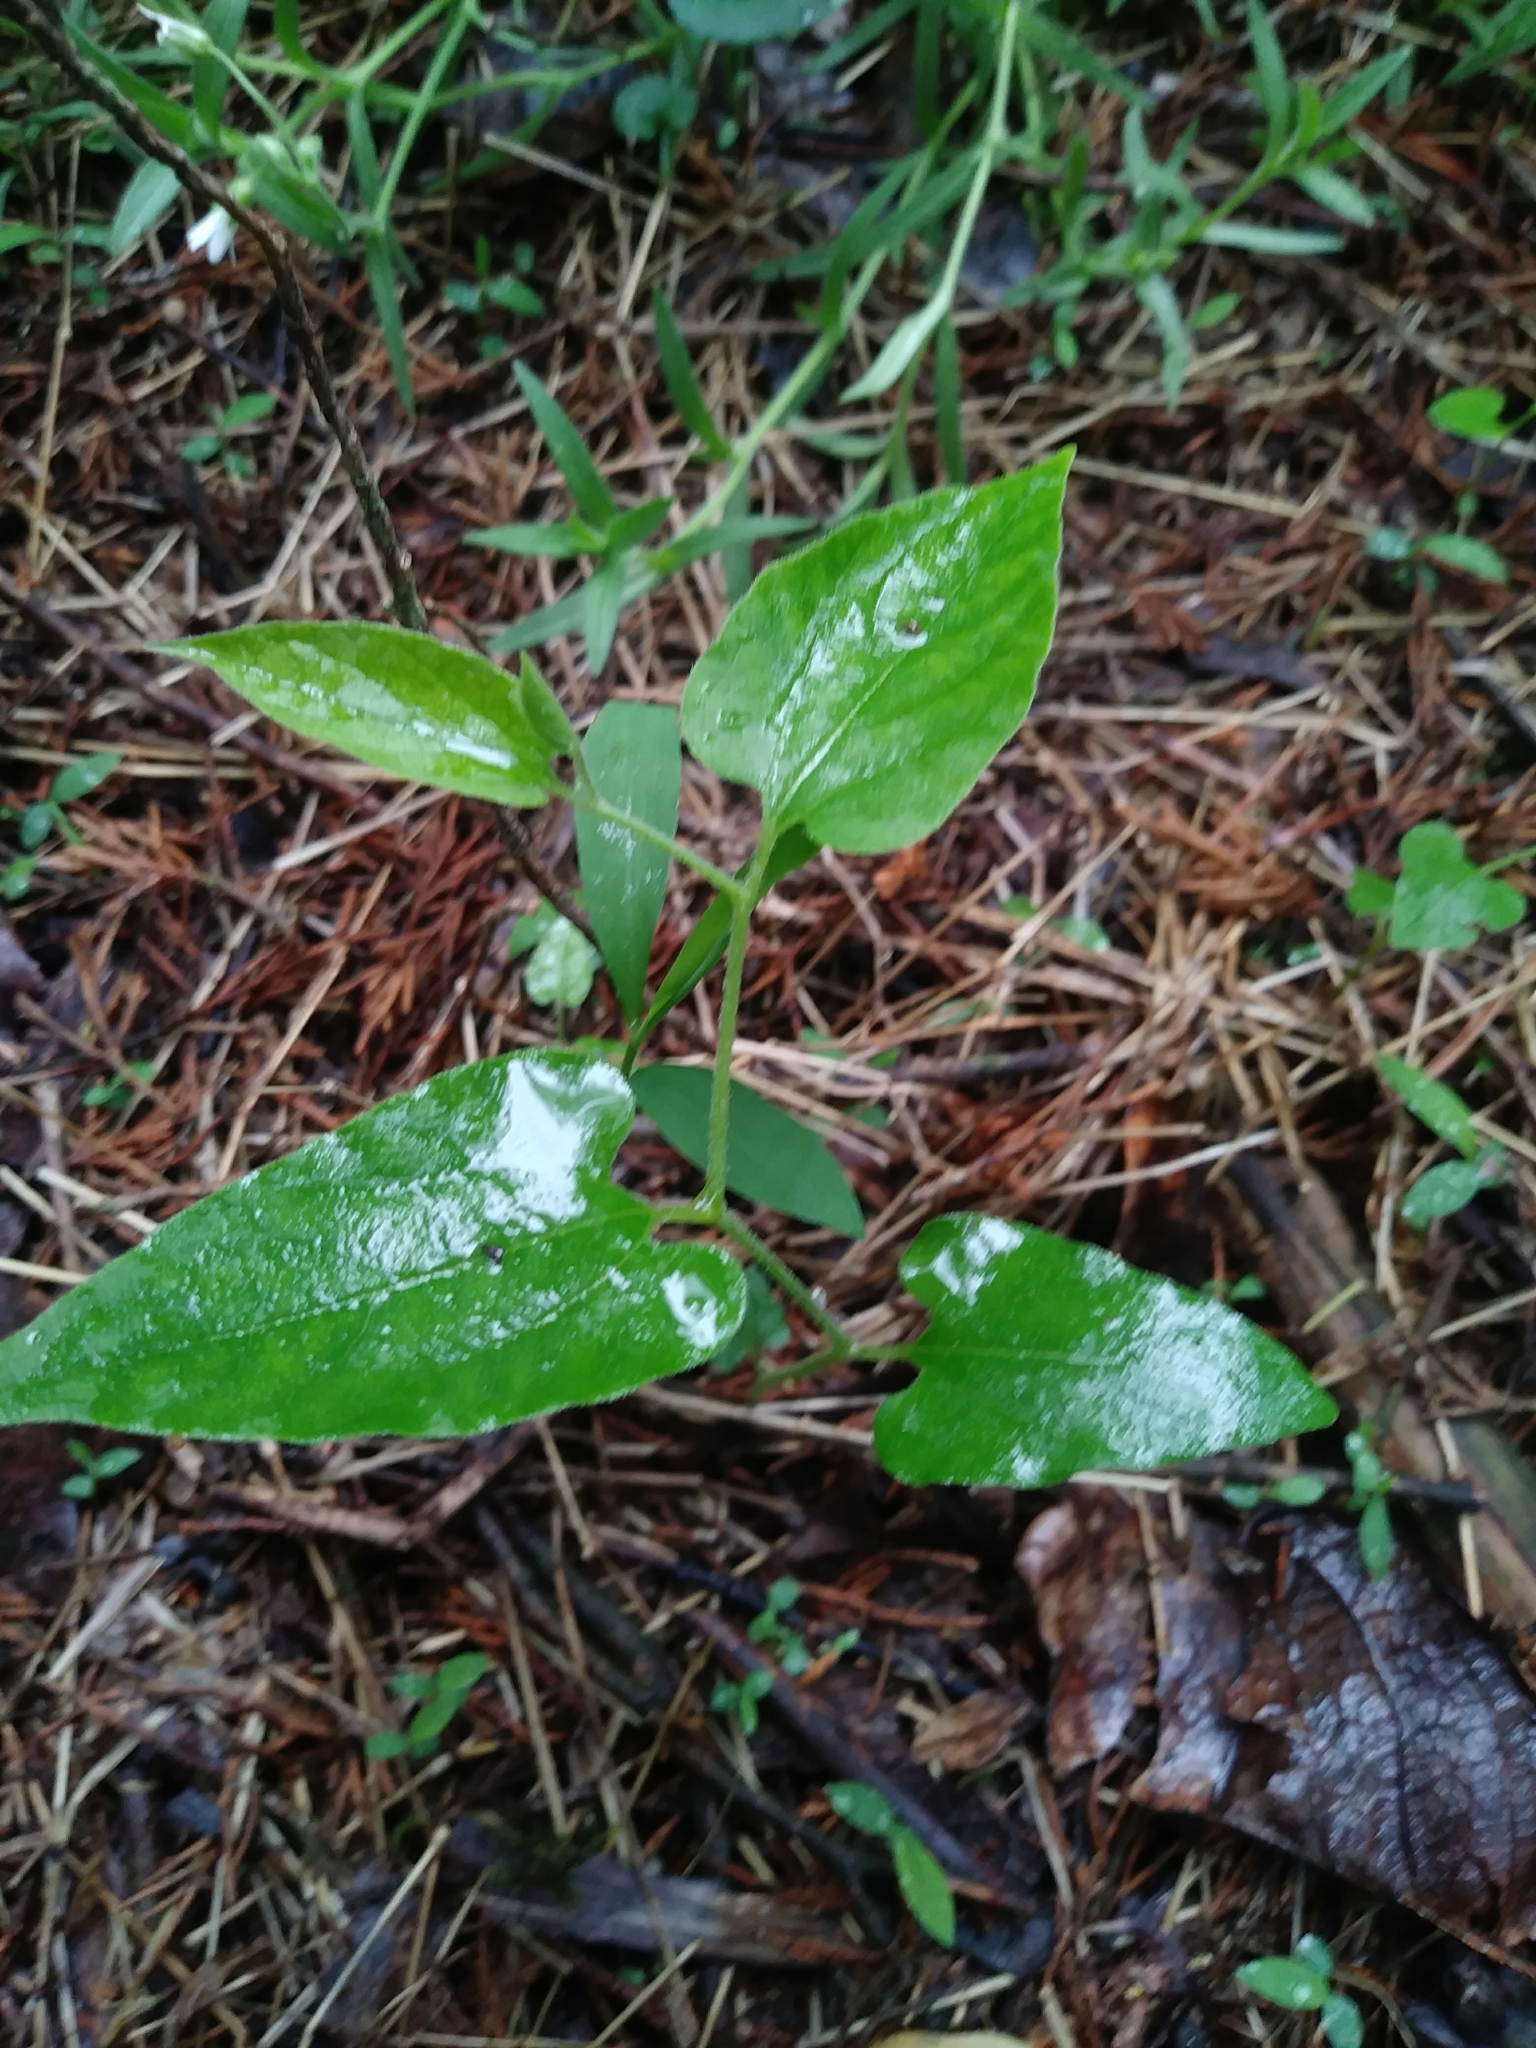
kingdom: Plantae
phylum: Tracheophyta
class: Magnoliopsida
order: Piperales
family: Aristolochiaceae
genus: Endodeca
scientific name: Endodeca serpentaria
